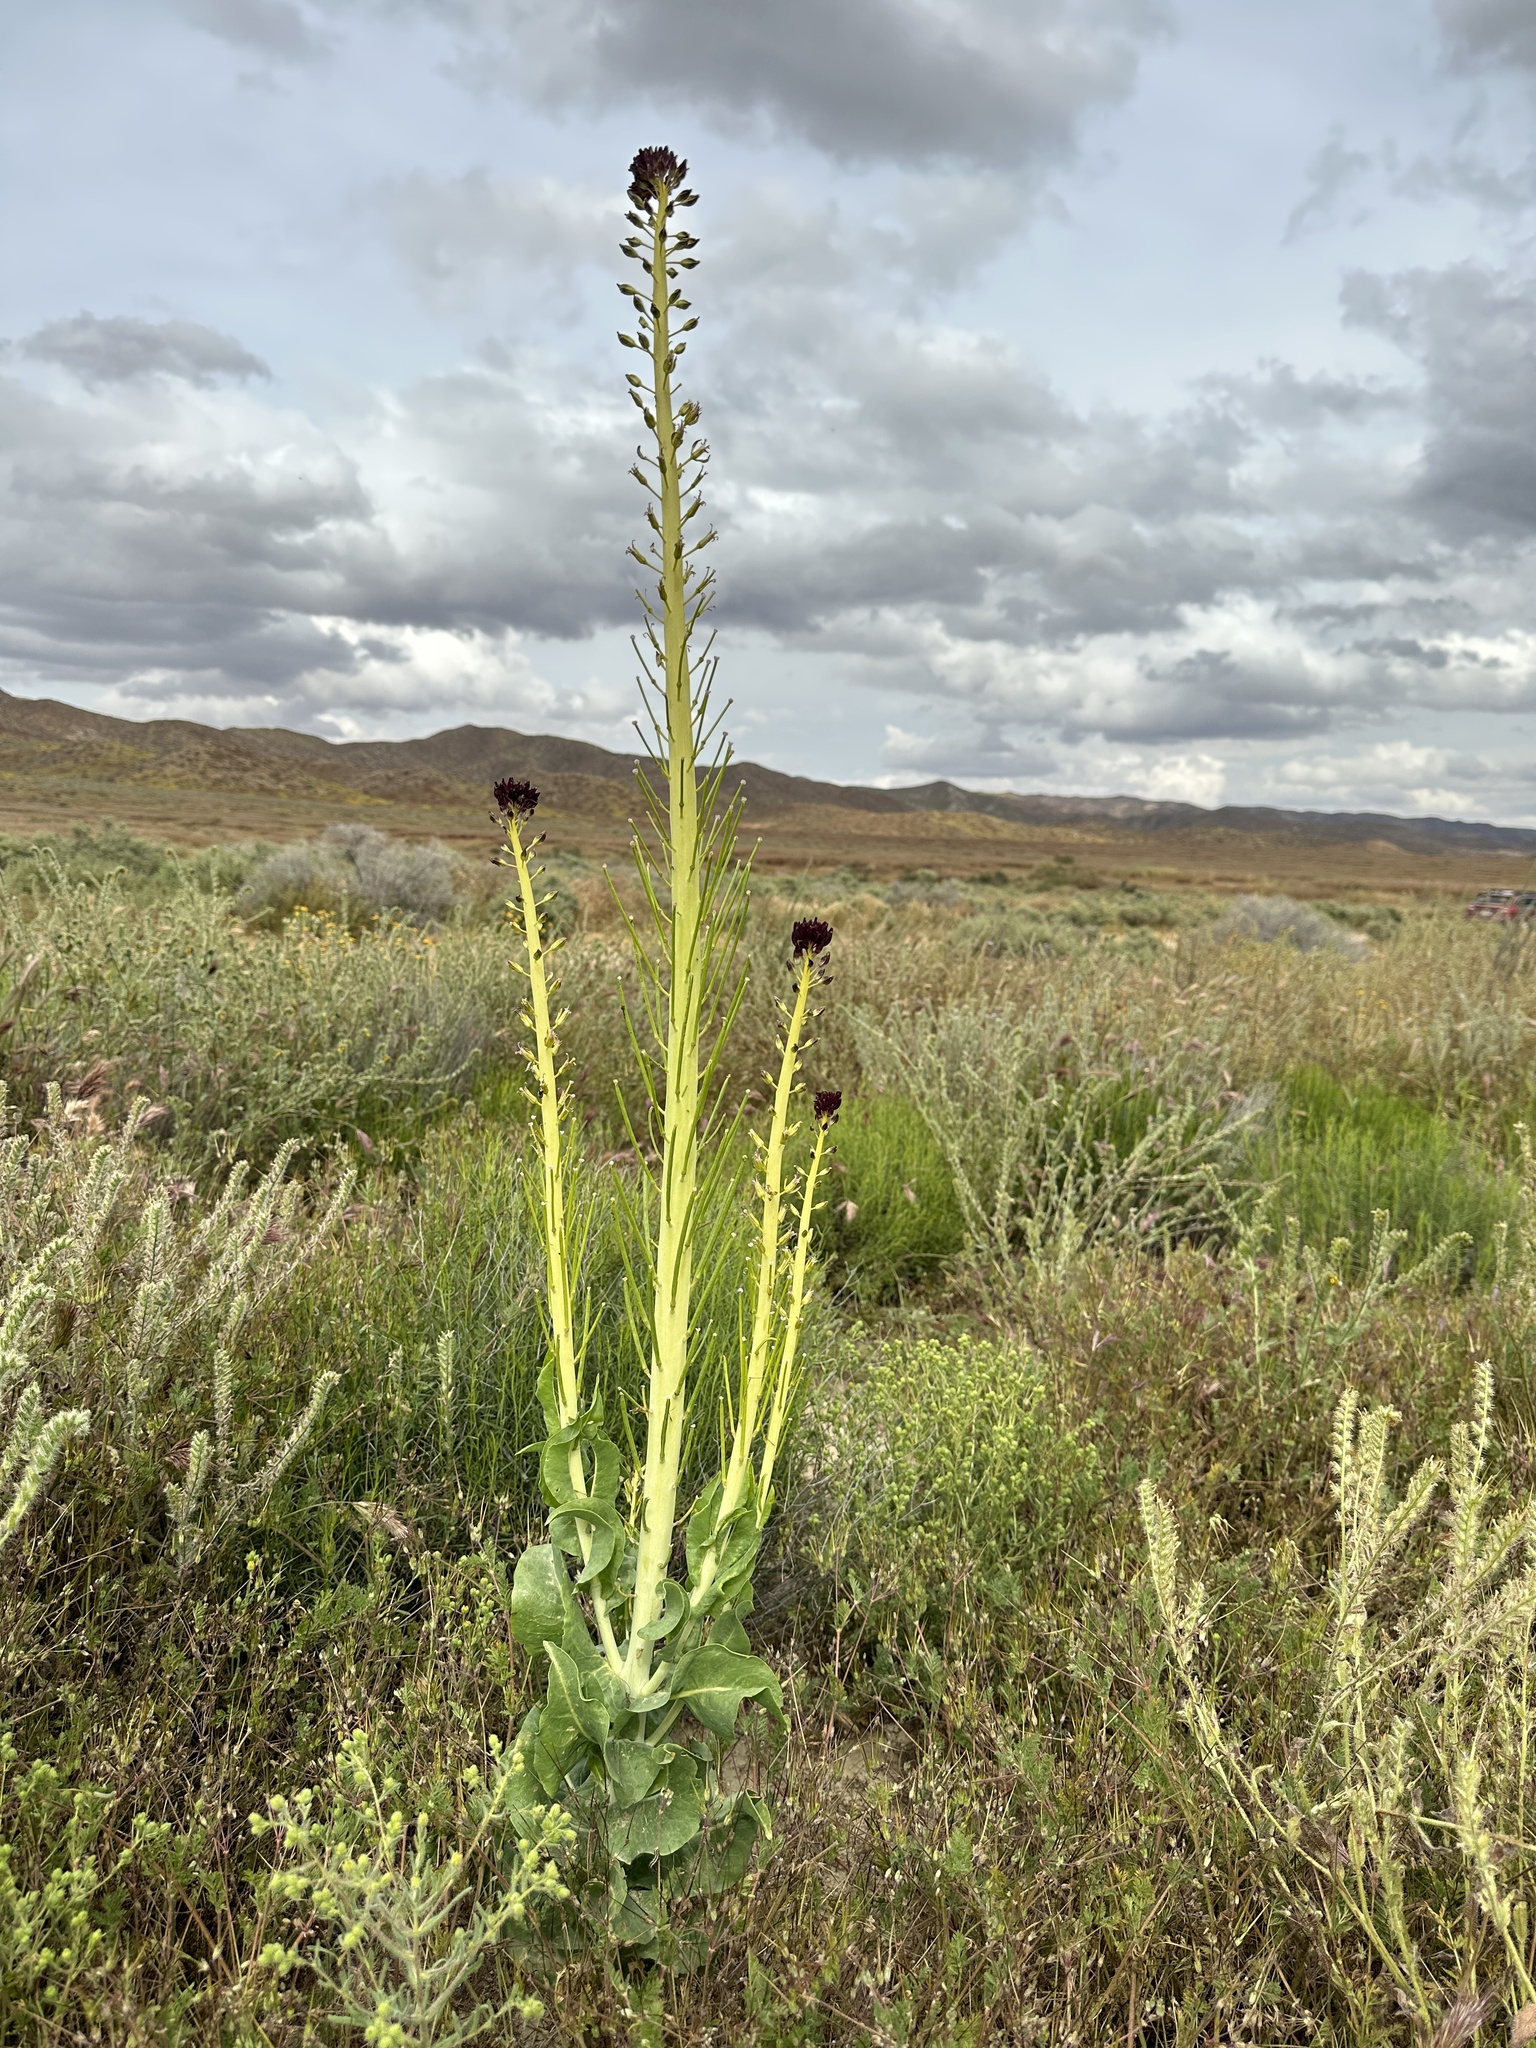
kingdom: Plantae
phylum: Tracheophyta
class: Magnoliopsida
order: Brassicales
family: Brassicaceae
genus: Streptanthus
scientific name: Streptanthus inflatus
